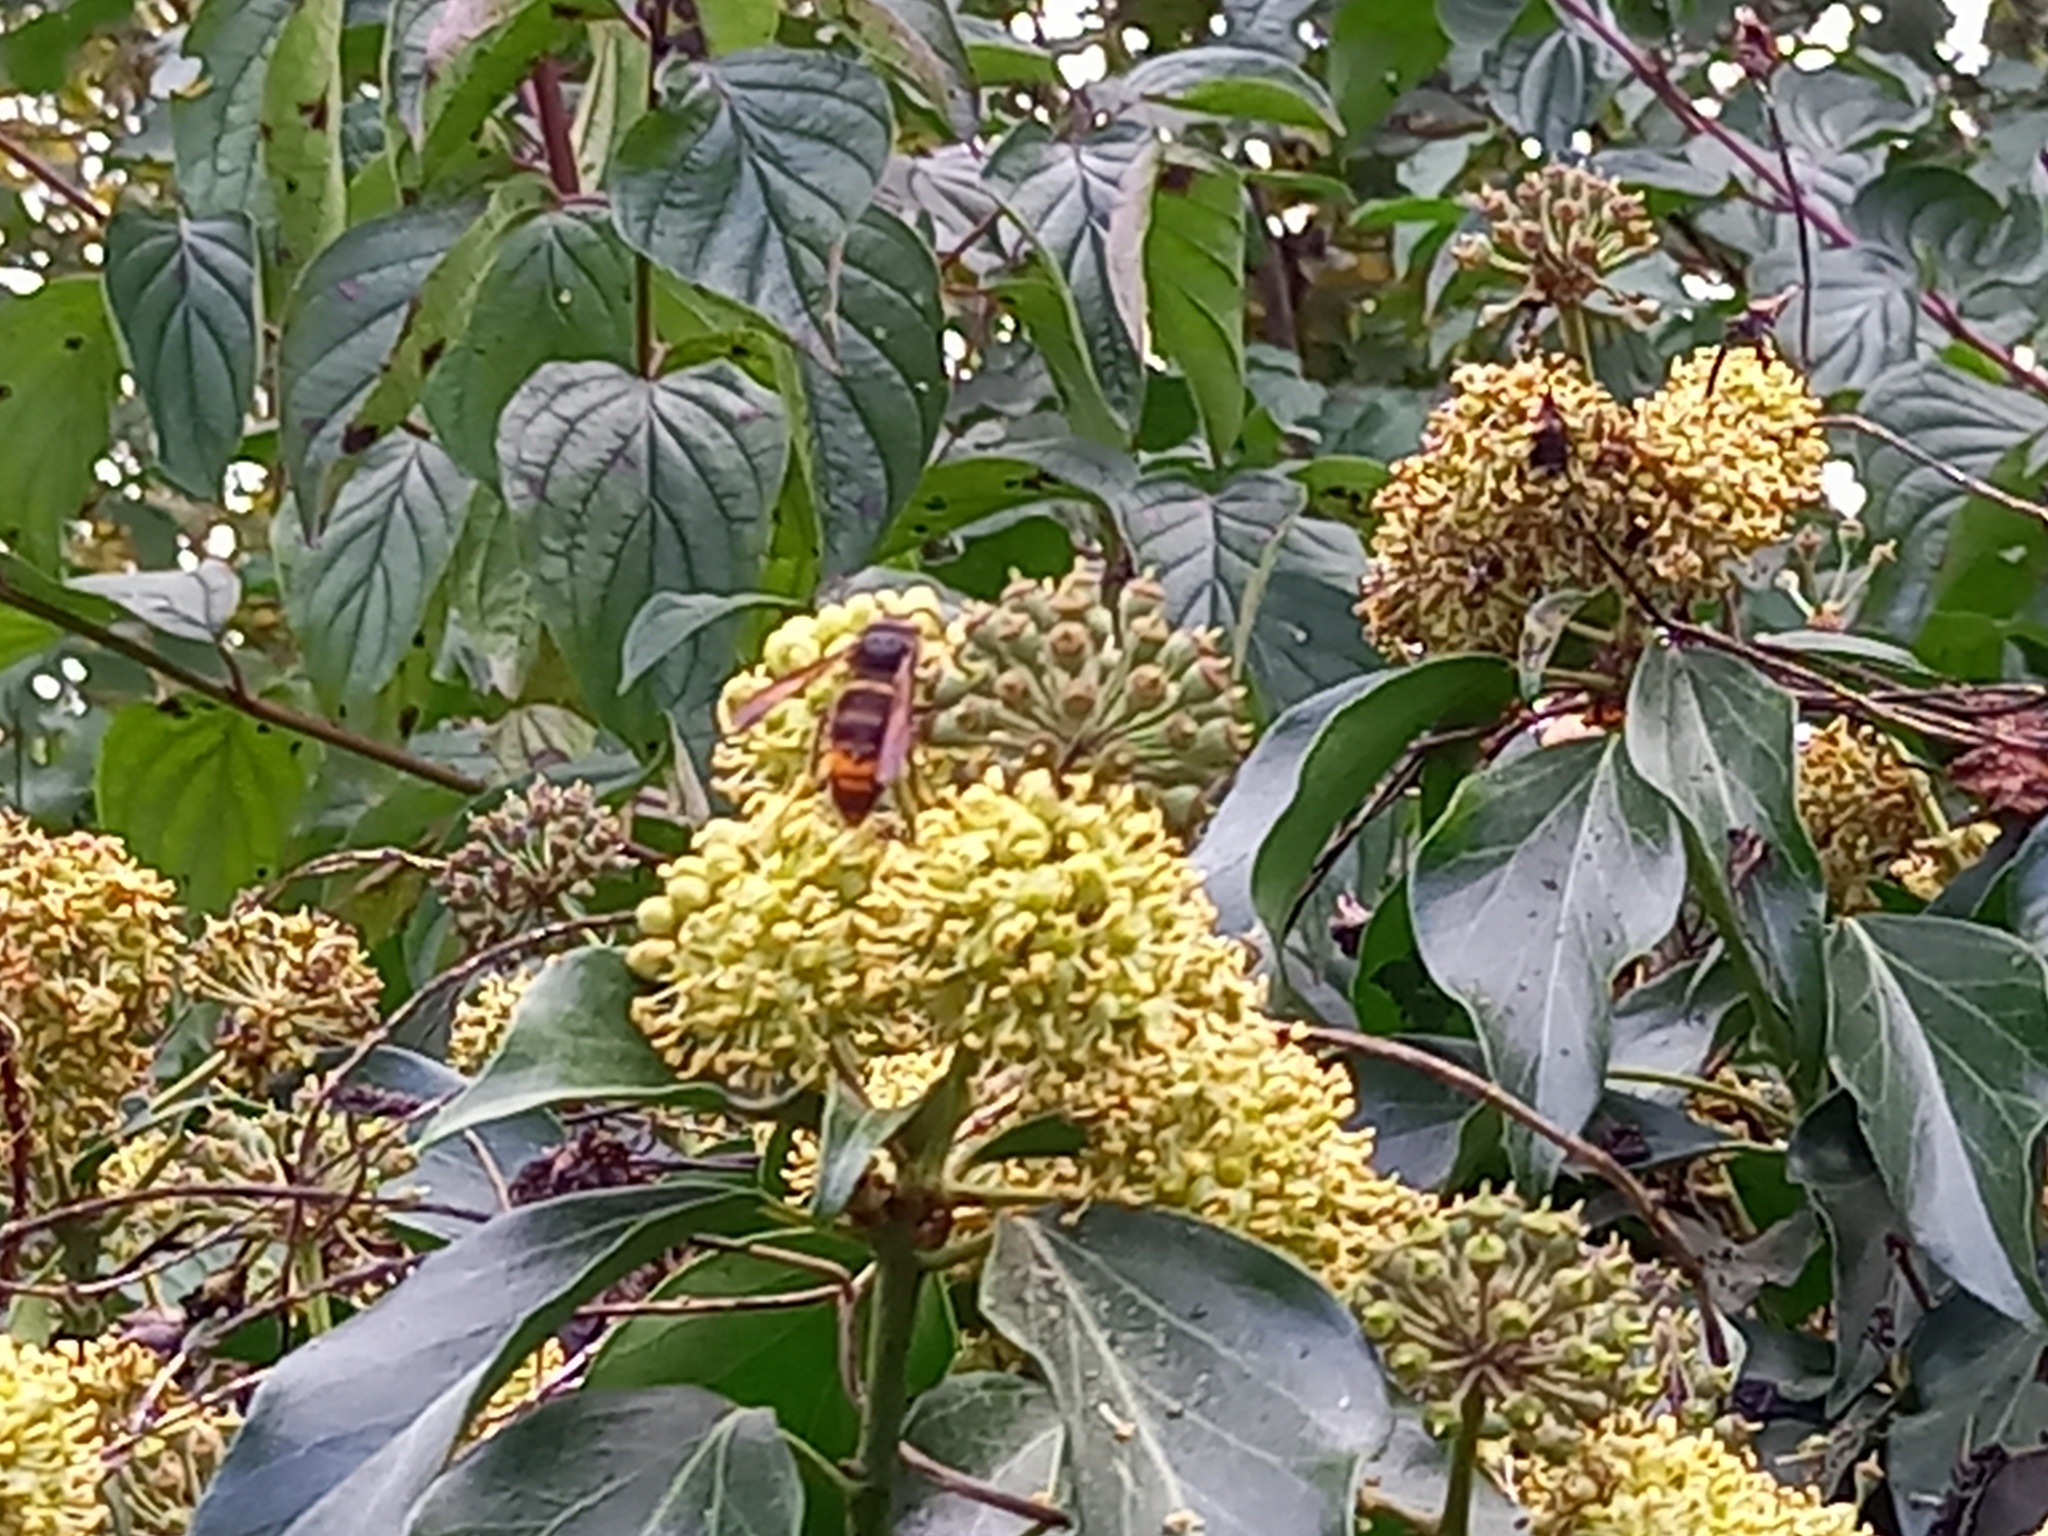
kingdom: Animalia
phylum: Arthropoda
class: Insecta
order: Hymenoptera
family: Vespidae
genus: Vespa
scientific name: Vespa velutina
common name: Asian hornet
